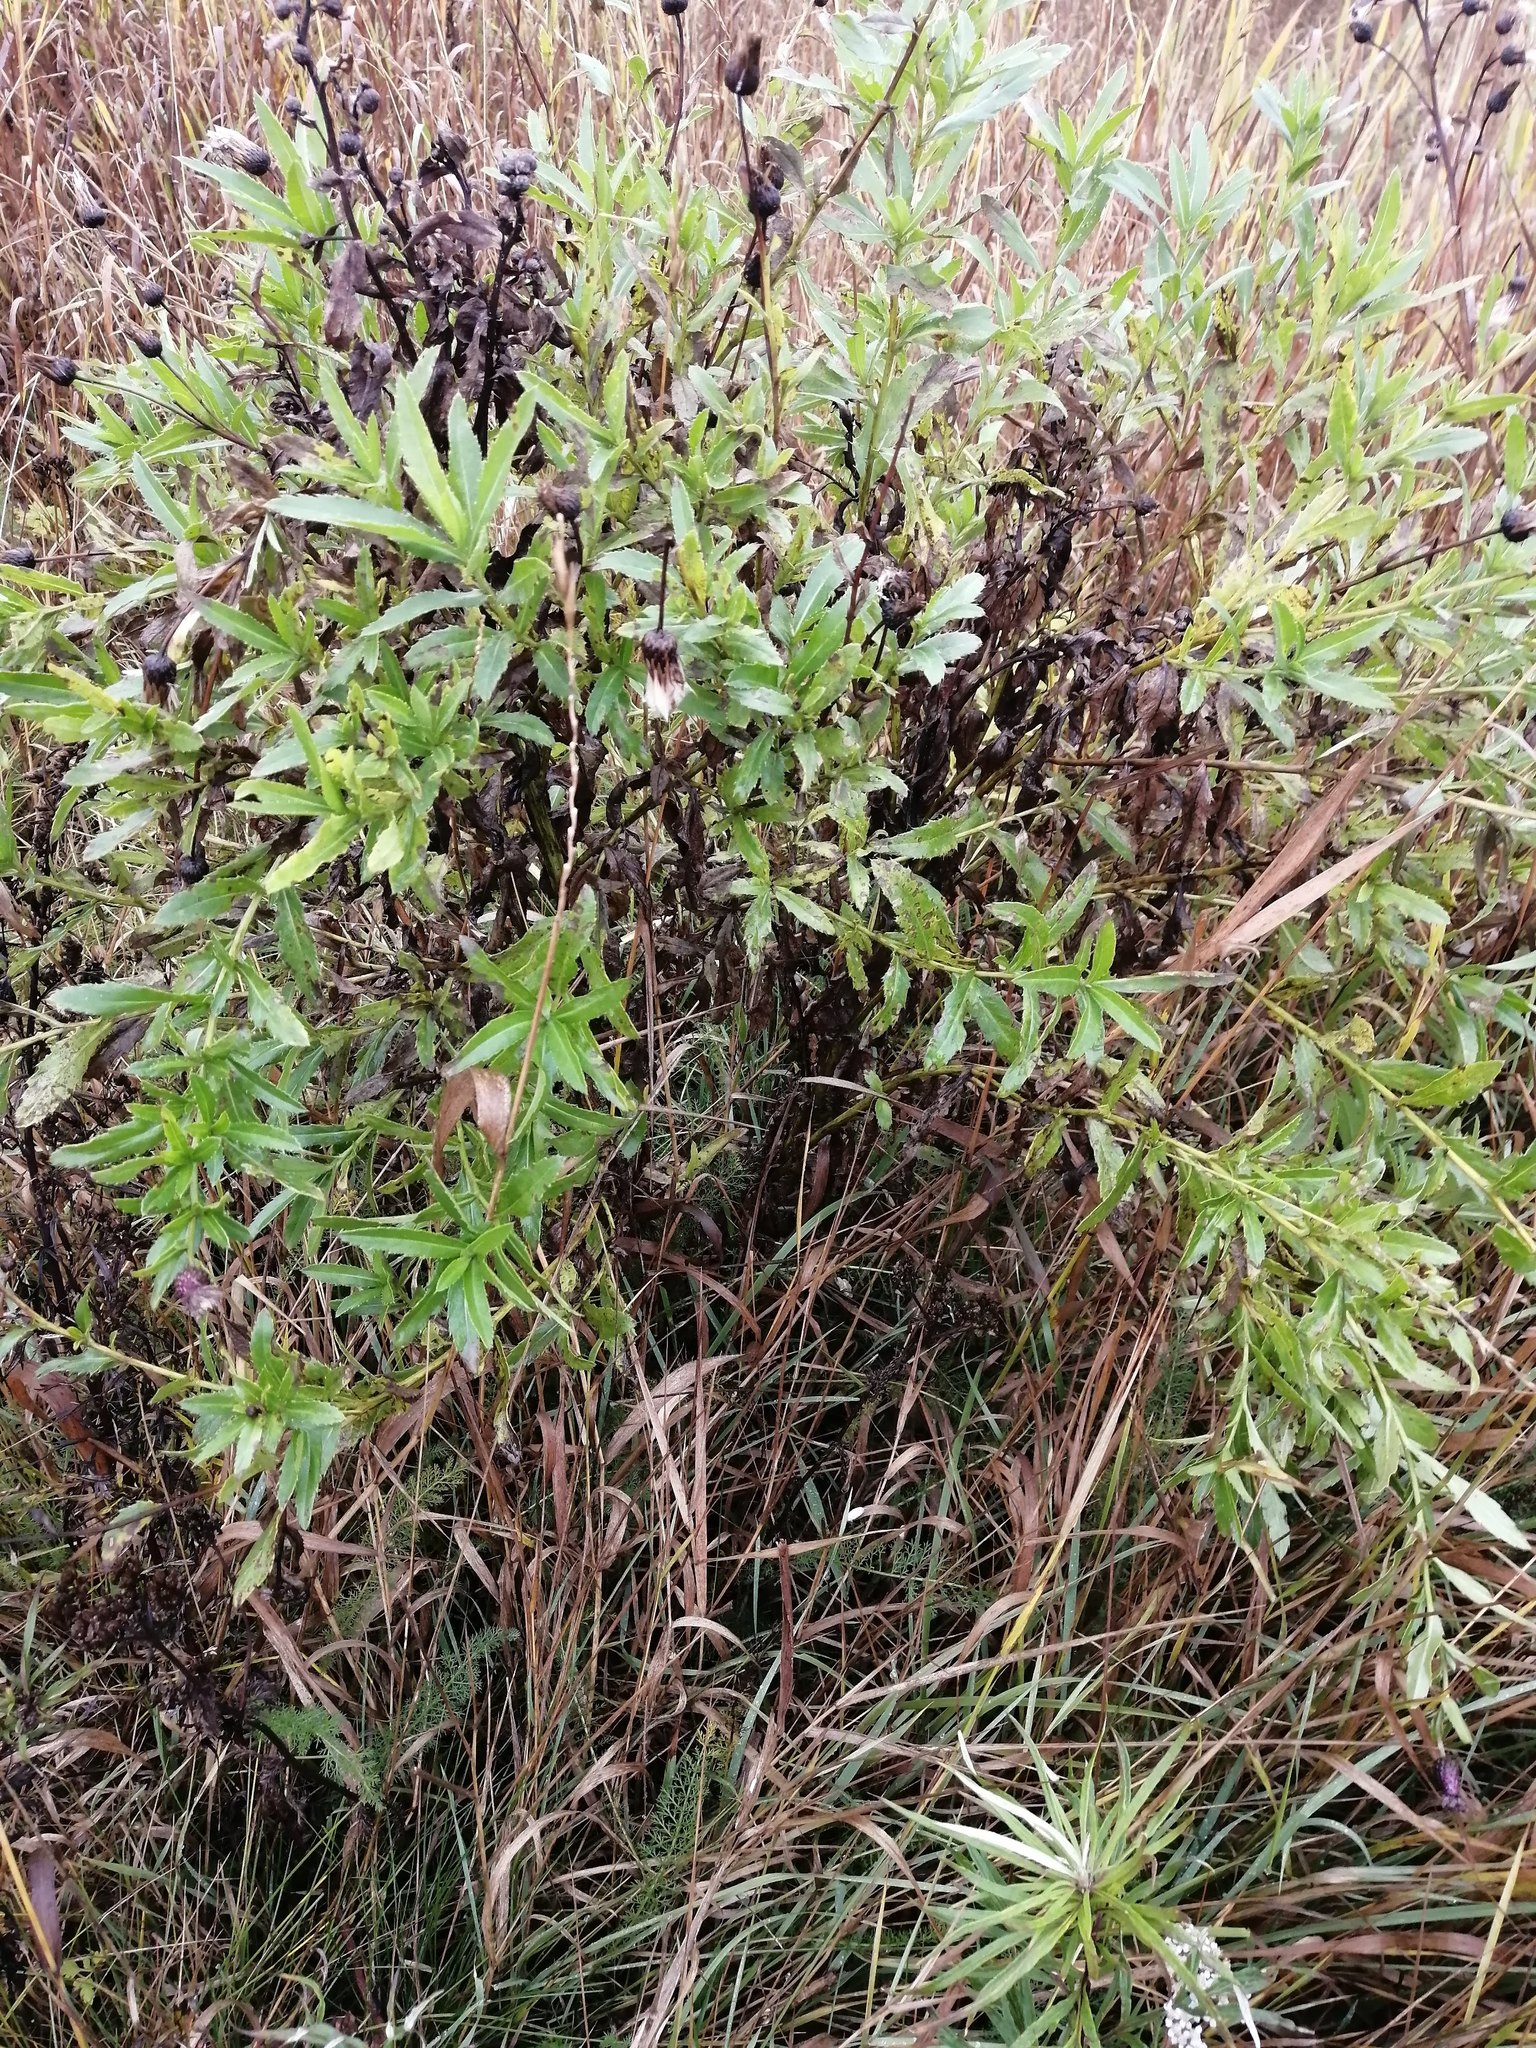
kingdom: Plantae
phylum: Tracheophyta
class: Magnoliopsida
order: Asterales
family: Asteraceae
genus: Cirsium
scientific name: Cirsium arvense
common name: Creeping thistle
